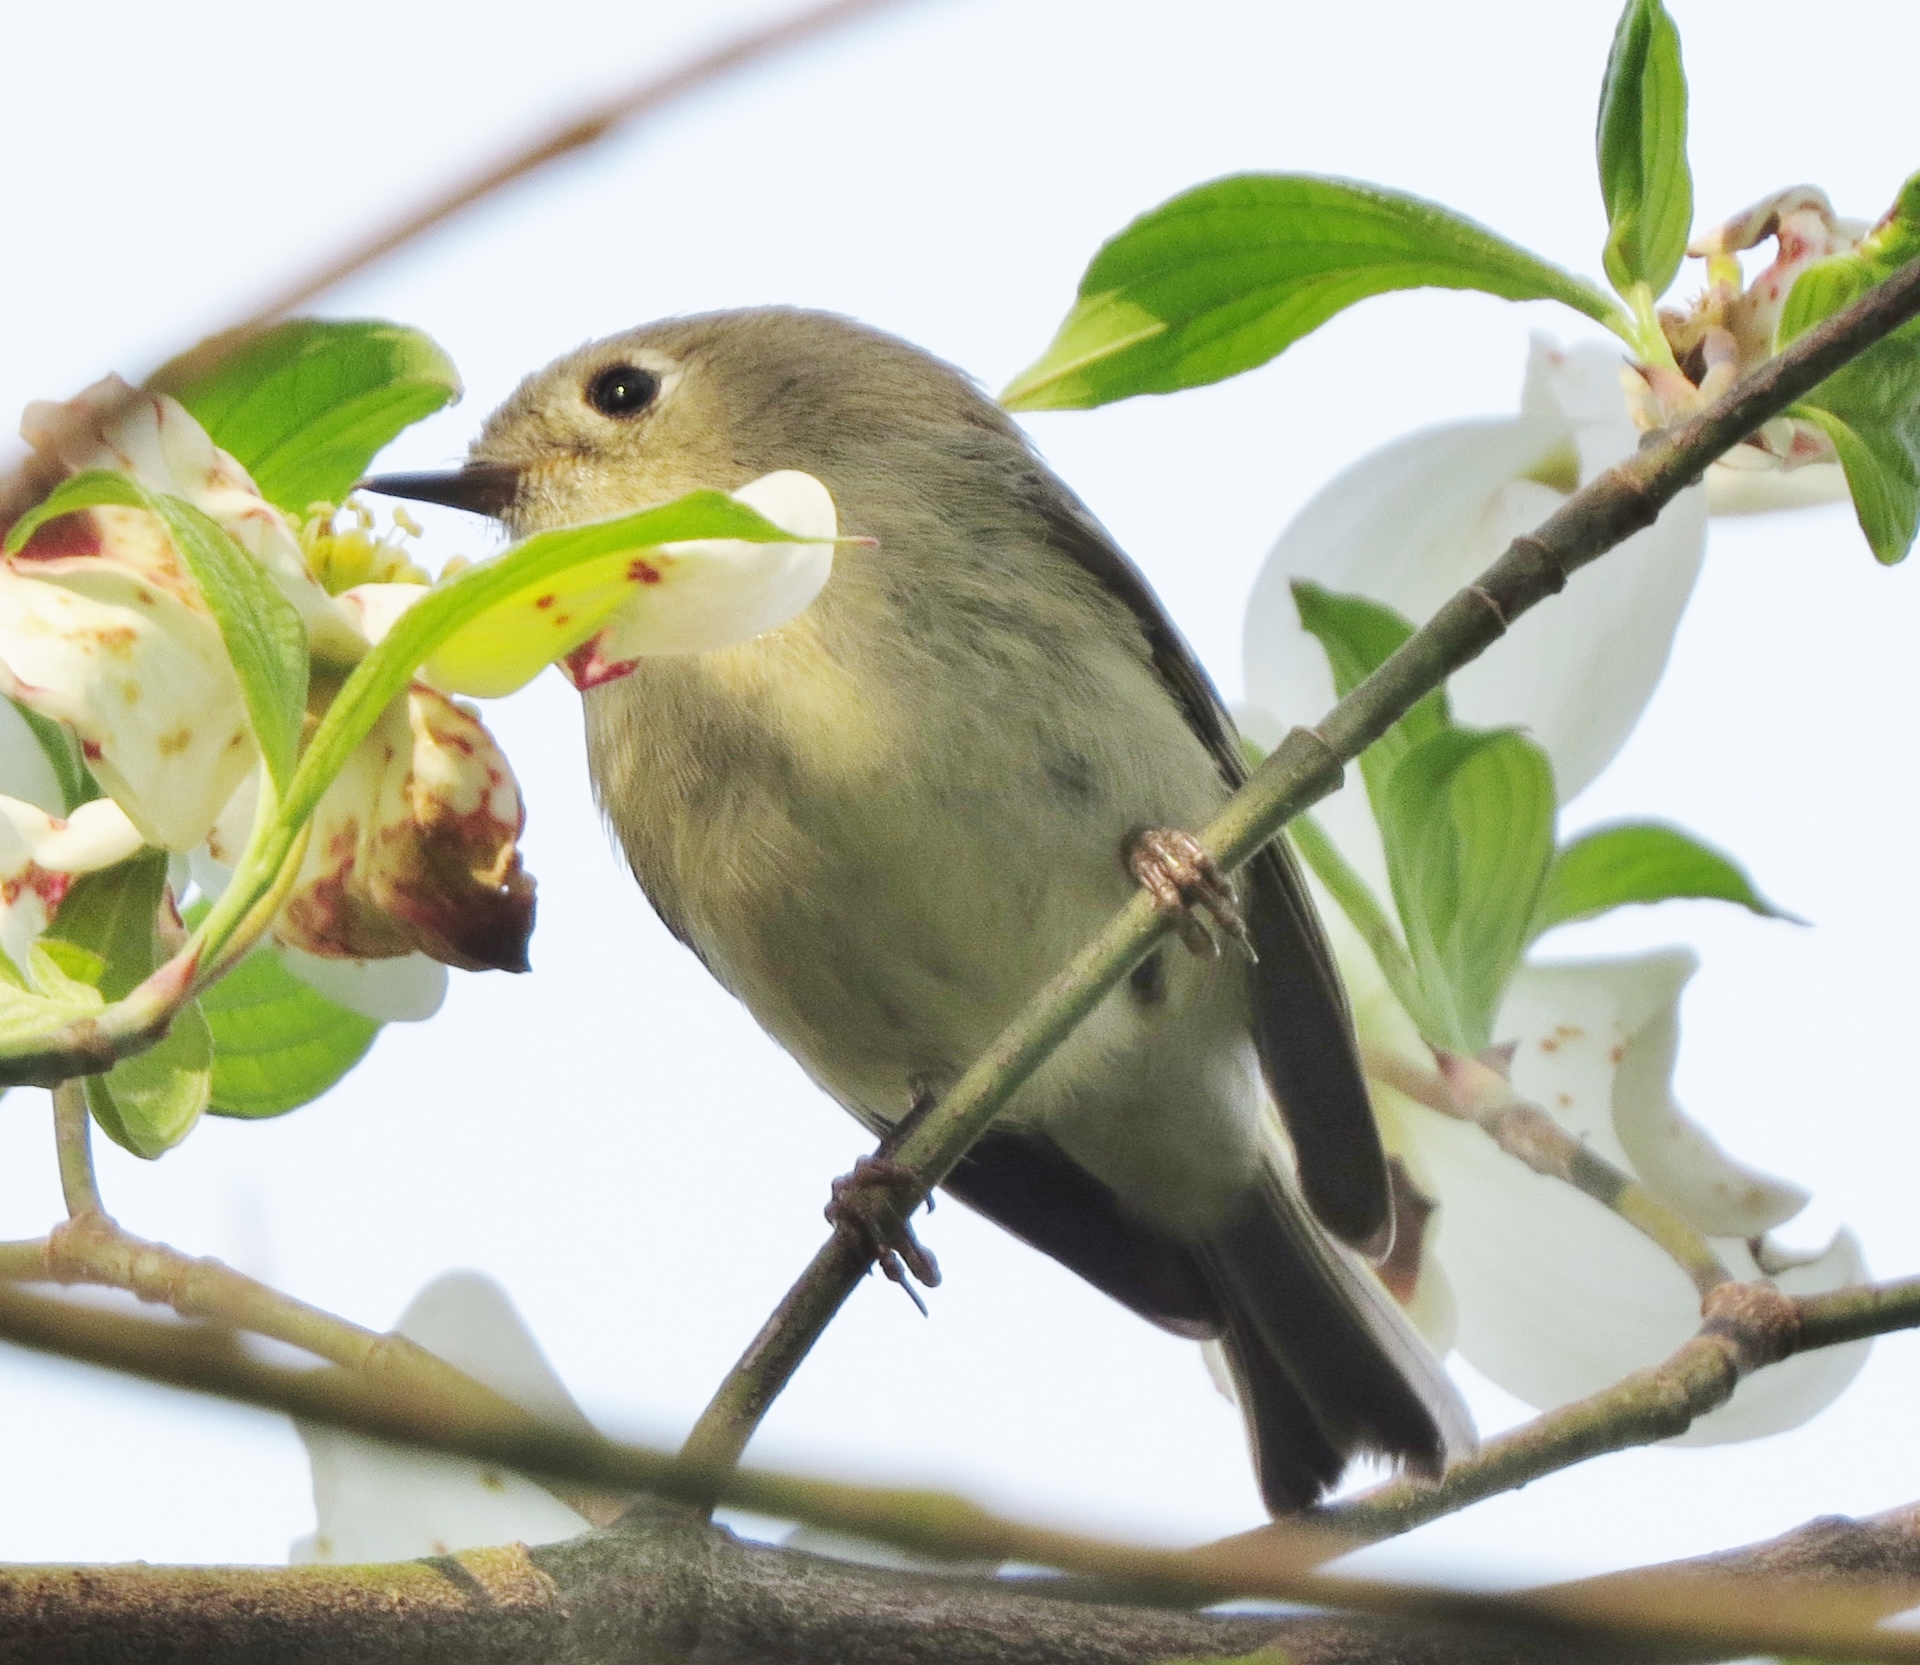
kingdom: Animalia
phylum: Chordata
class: Aves
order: Passeriformes
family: Regulidae
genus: Regulus
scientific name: Regulus calendula
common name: Ruby-crowned kinglet
